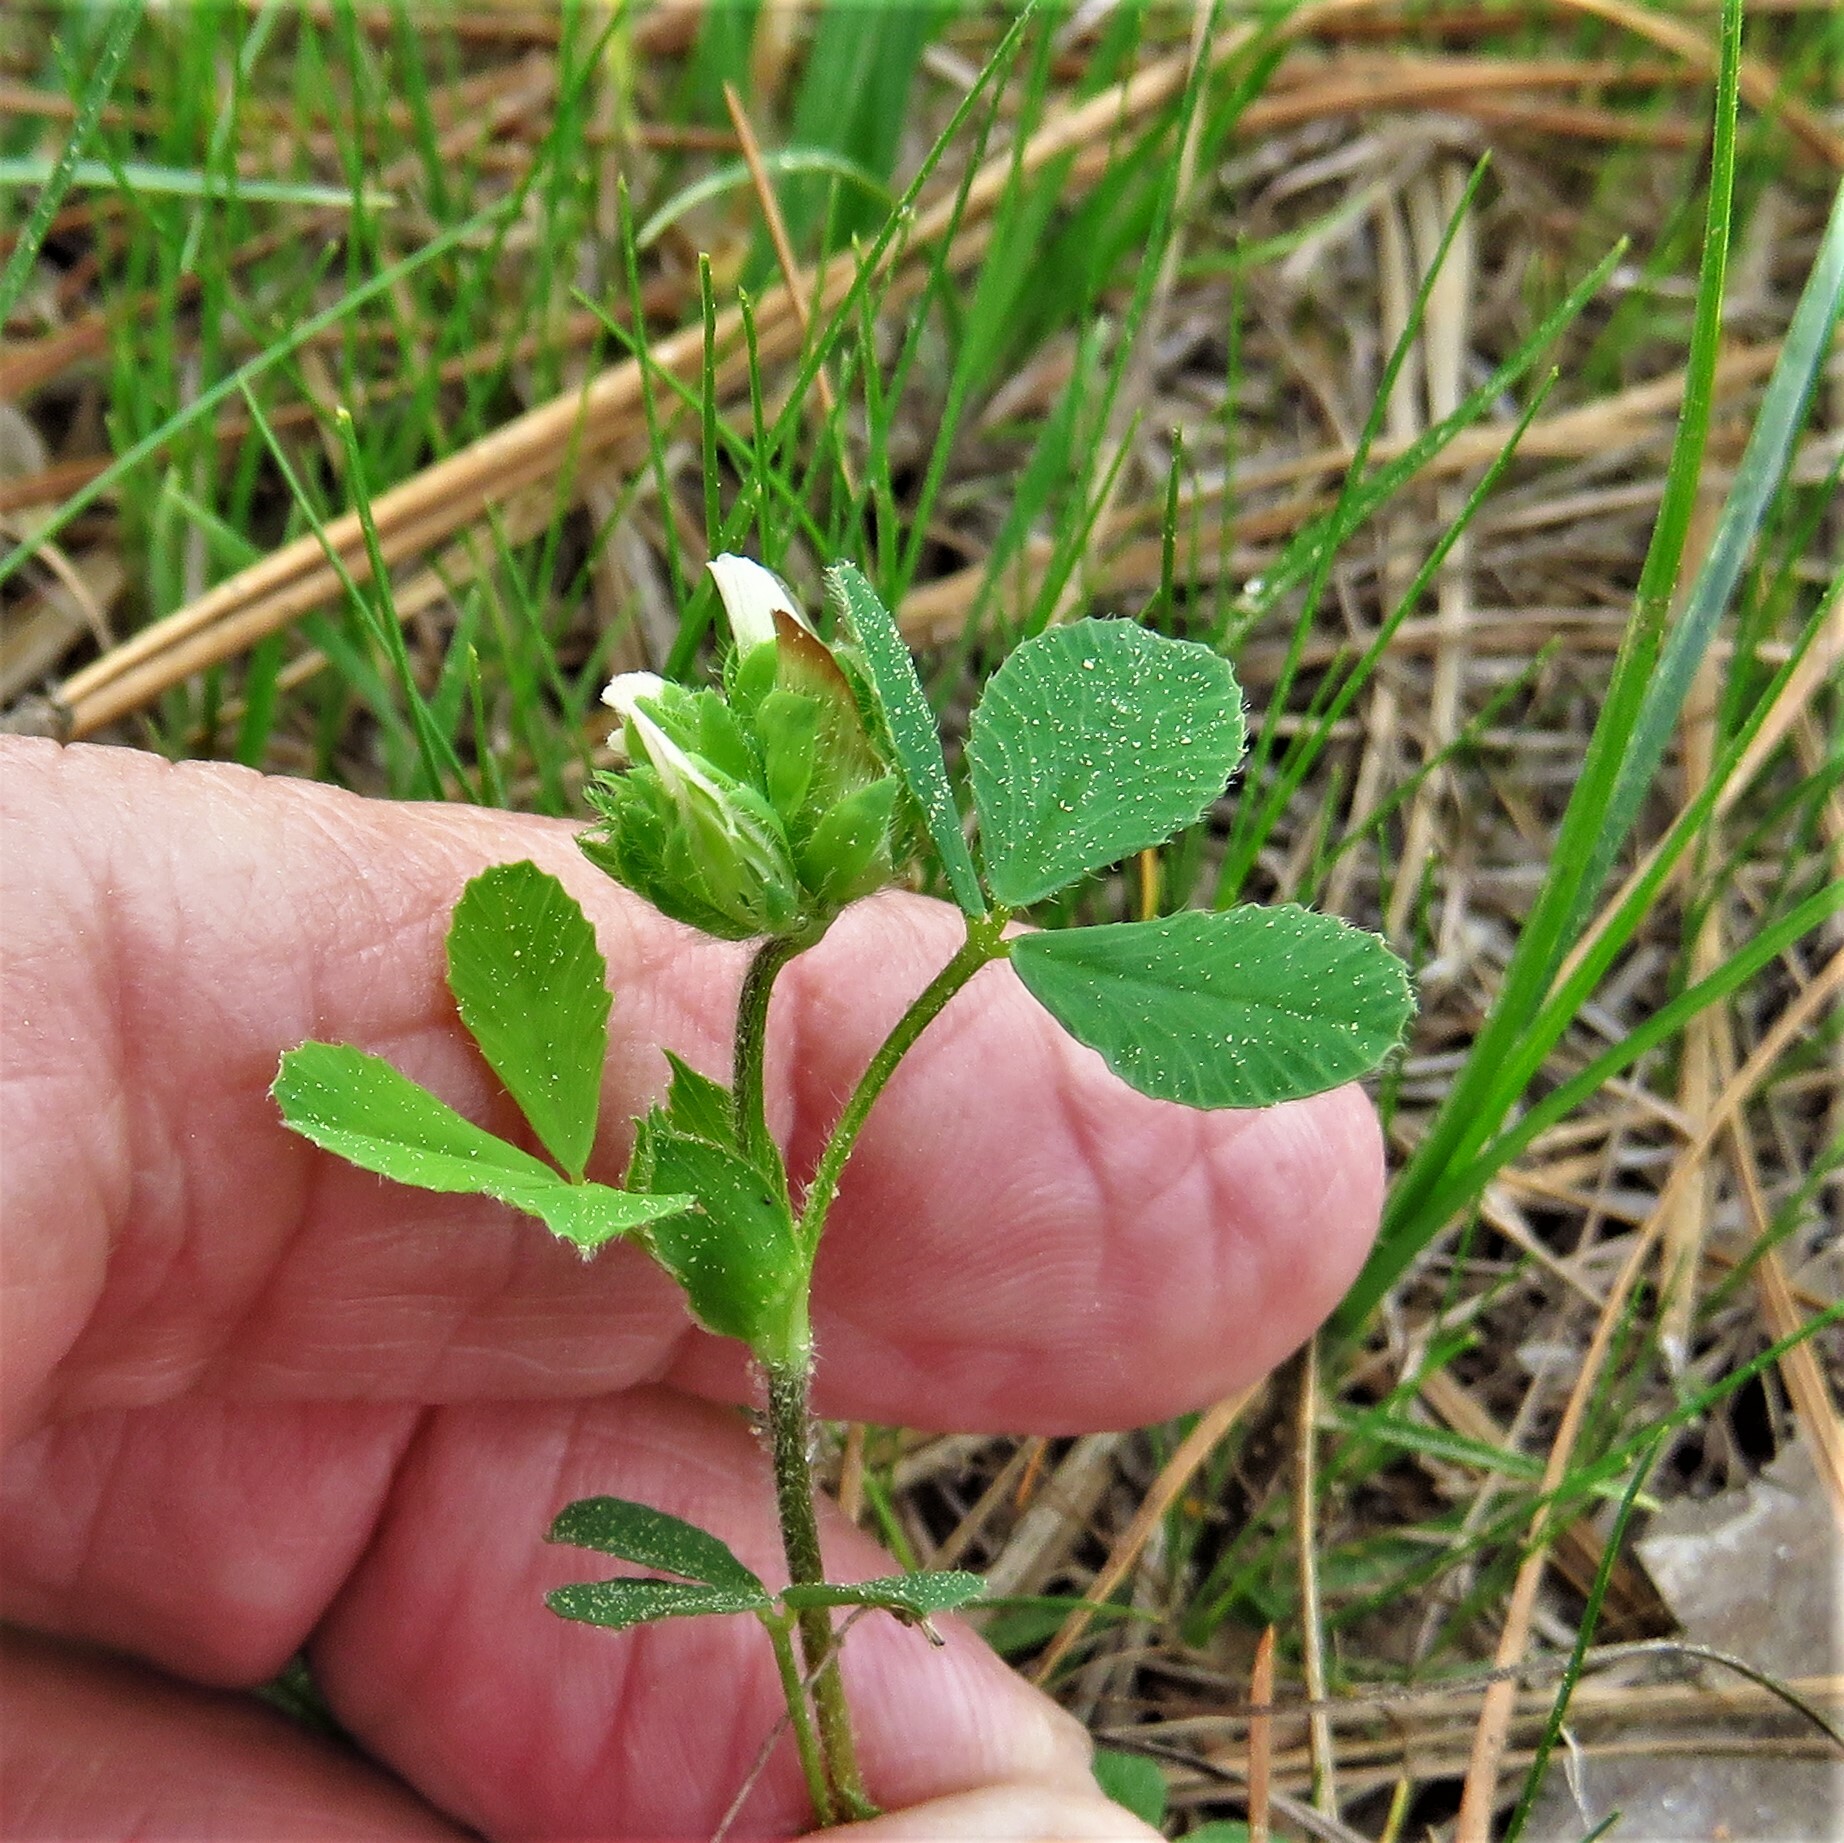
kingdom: Plantae
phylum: Tracheophyta
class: Magnoliopsida
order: Fabales
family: Fabaceae
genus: Trifolium
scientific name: Trifolium bejariense
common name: Bejar clover
